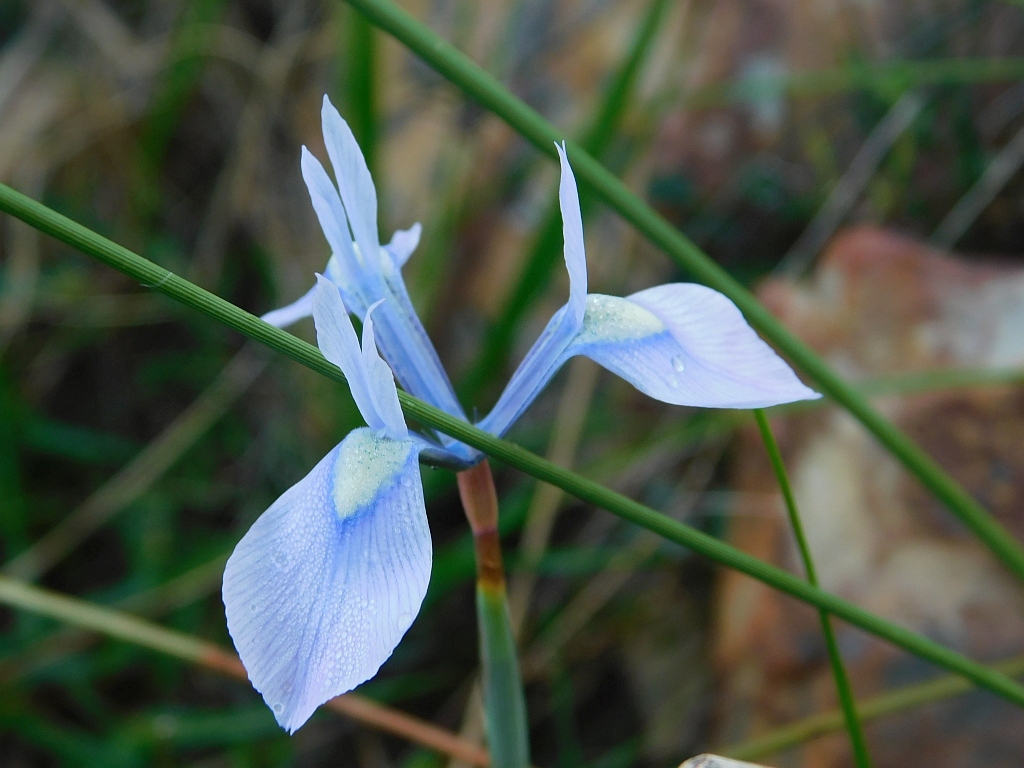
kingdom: Plantae
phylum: Tracheophyta
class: Liliopsida
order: Asparagales
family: Iridaceae
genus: Moraea
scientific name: Moraea tripetala
